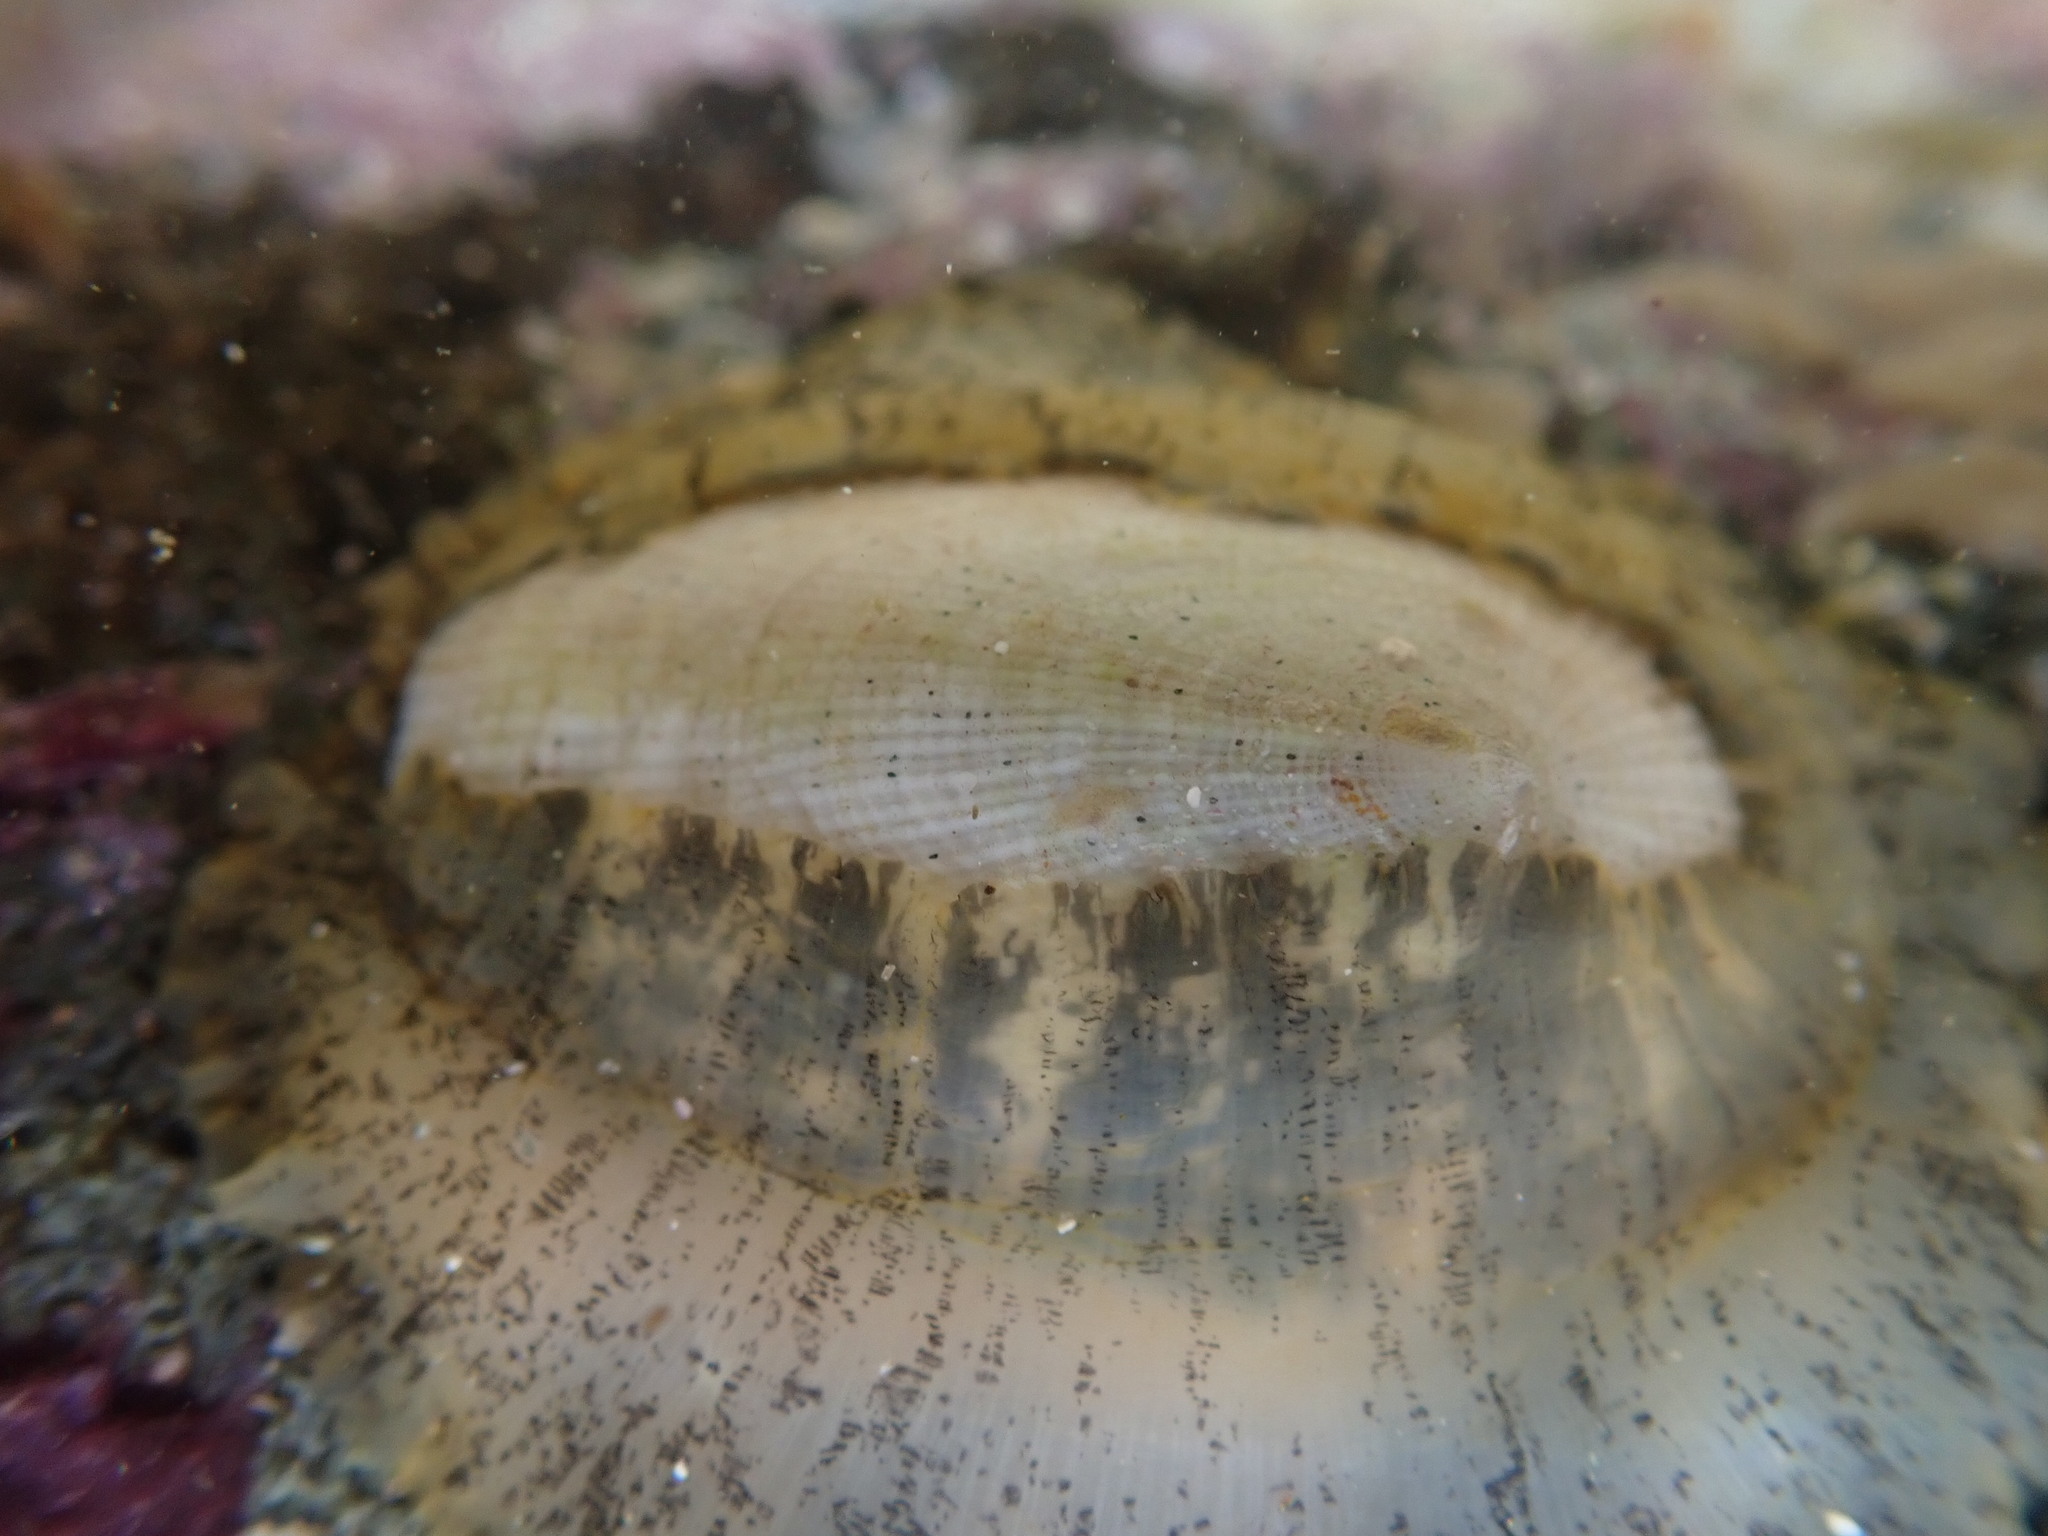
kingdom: Animalia
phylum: Mollusca
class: Gastropoda
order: Lepetellida
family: Fissurellidae
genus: Tugali
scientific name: Tugali elegans
